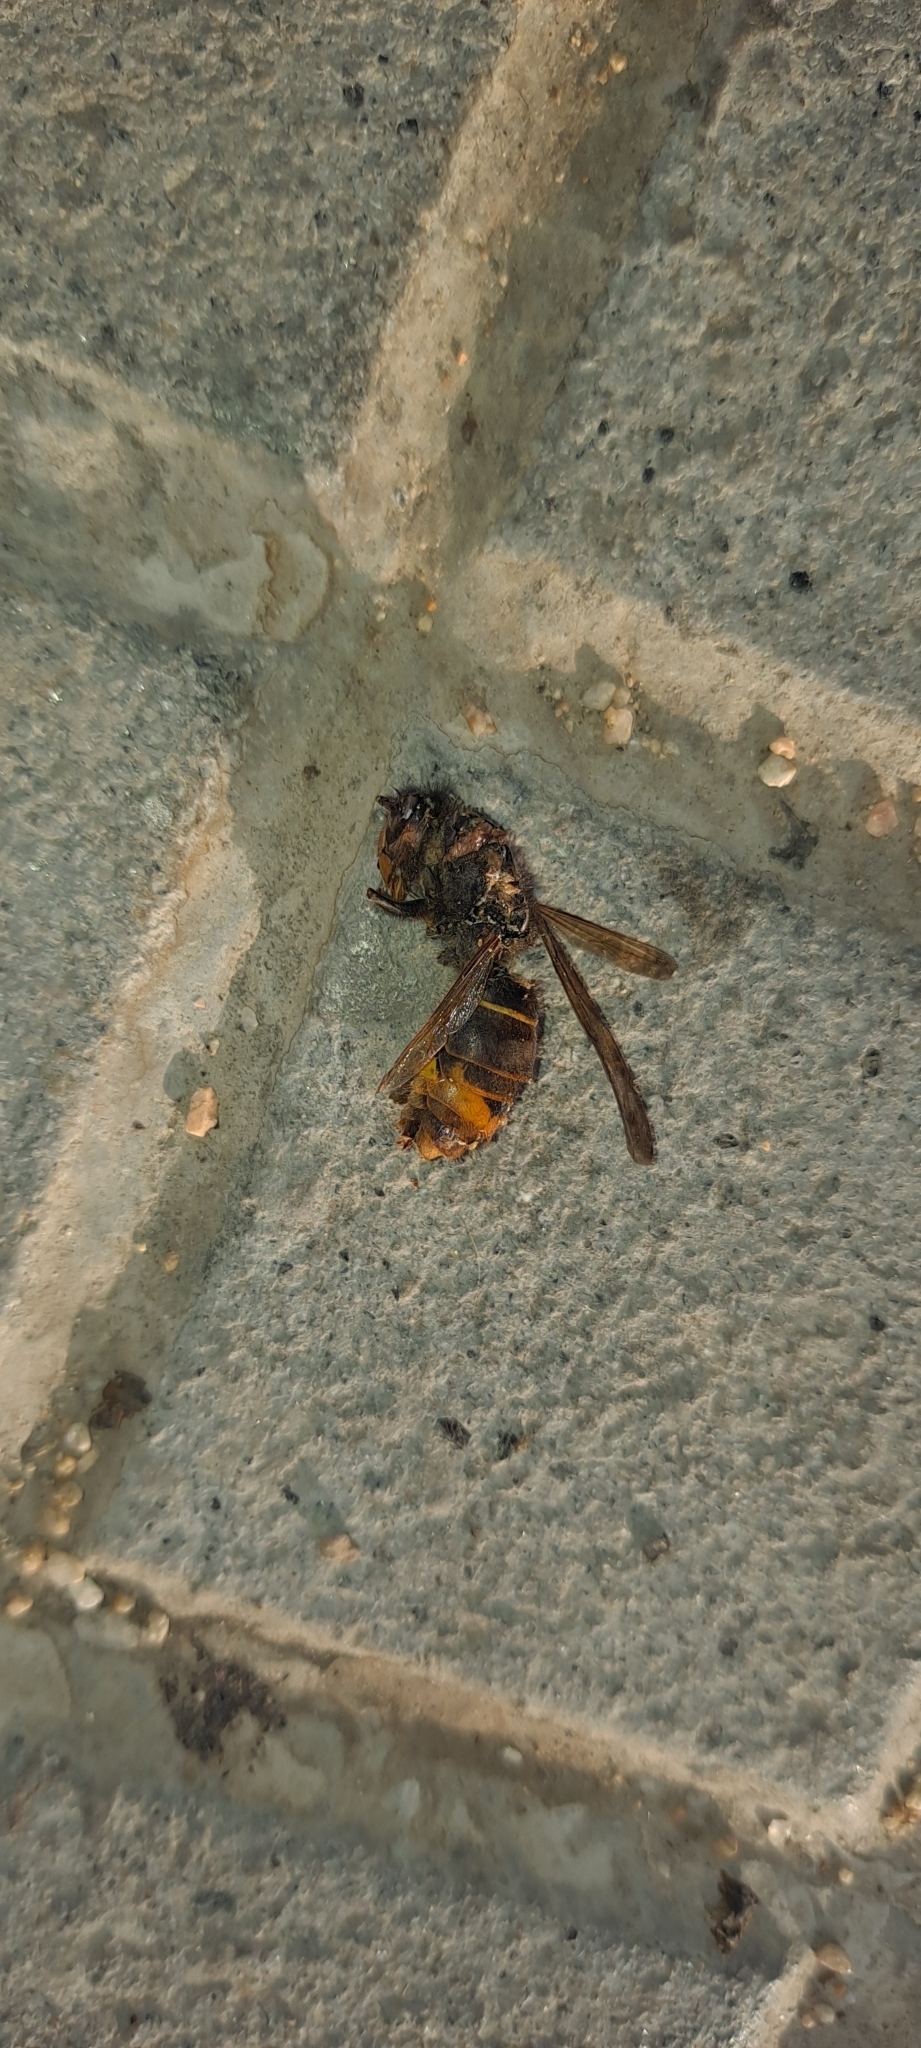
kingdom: Animalia
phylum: Arthropoda
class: Insecta
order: Hymenoptera
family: Vespidae
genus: Vespa
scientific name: Vespa velutina
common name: Asian hornet
